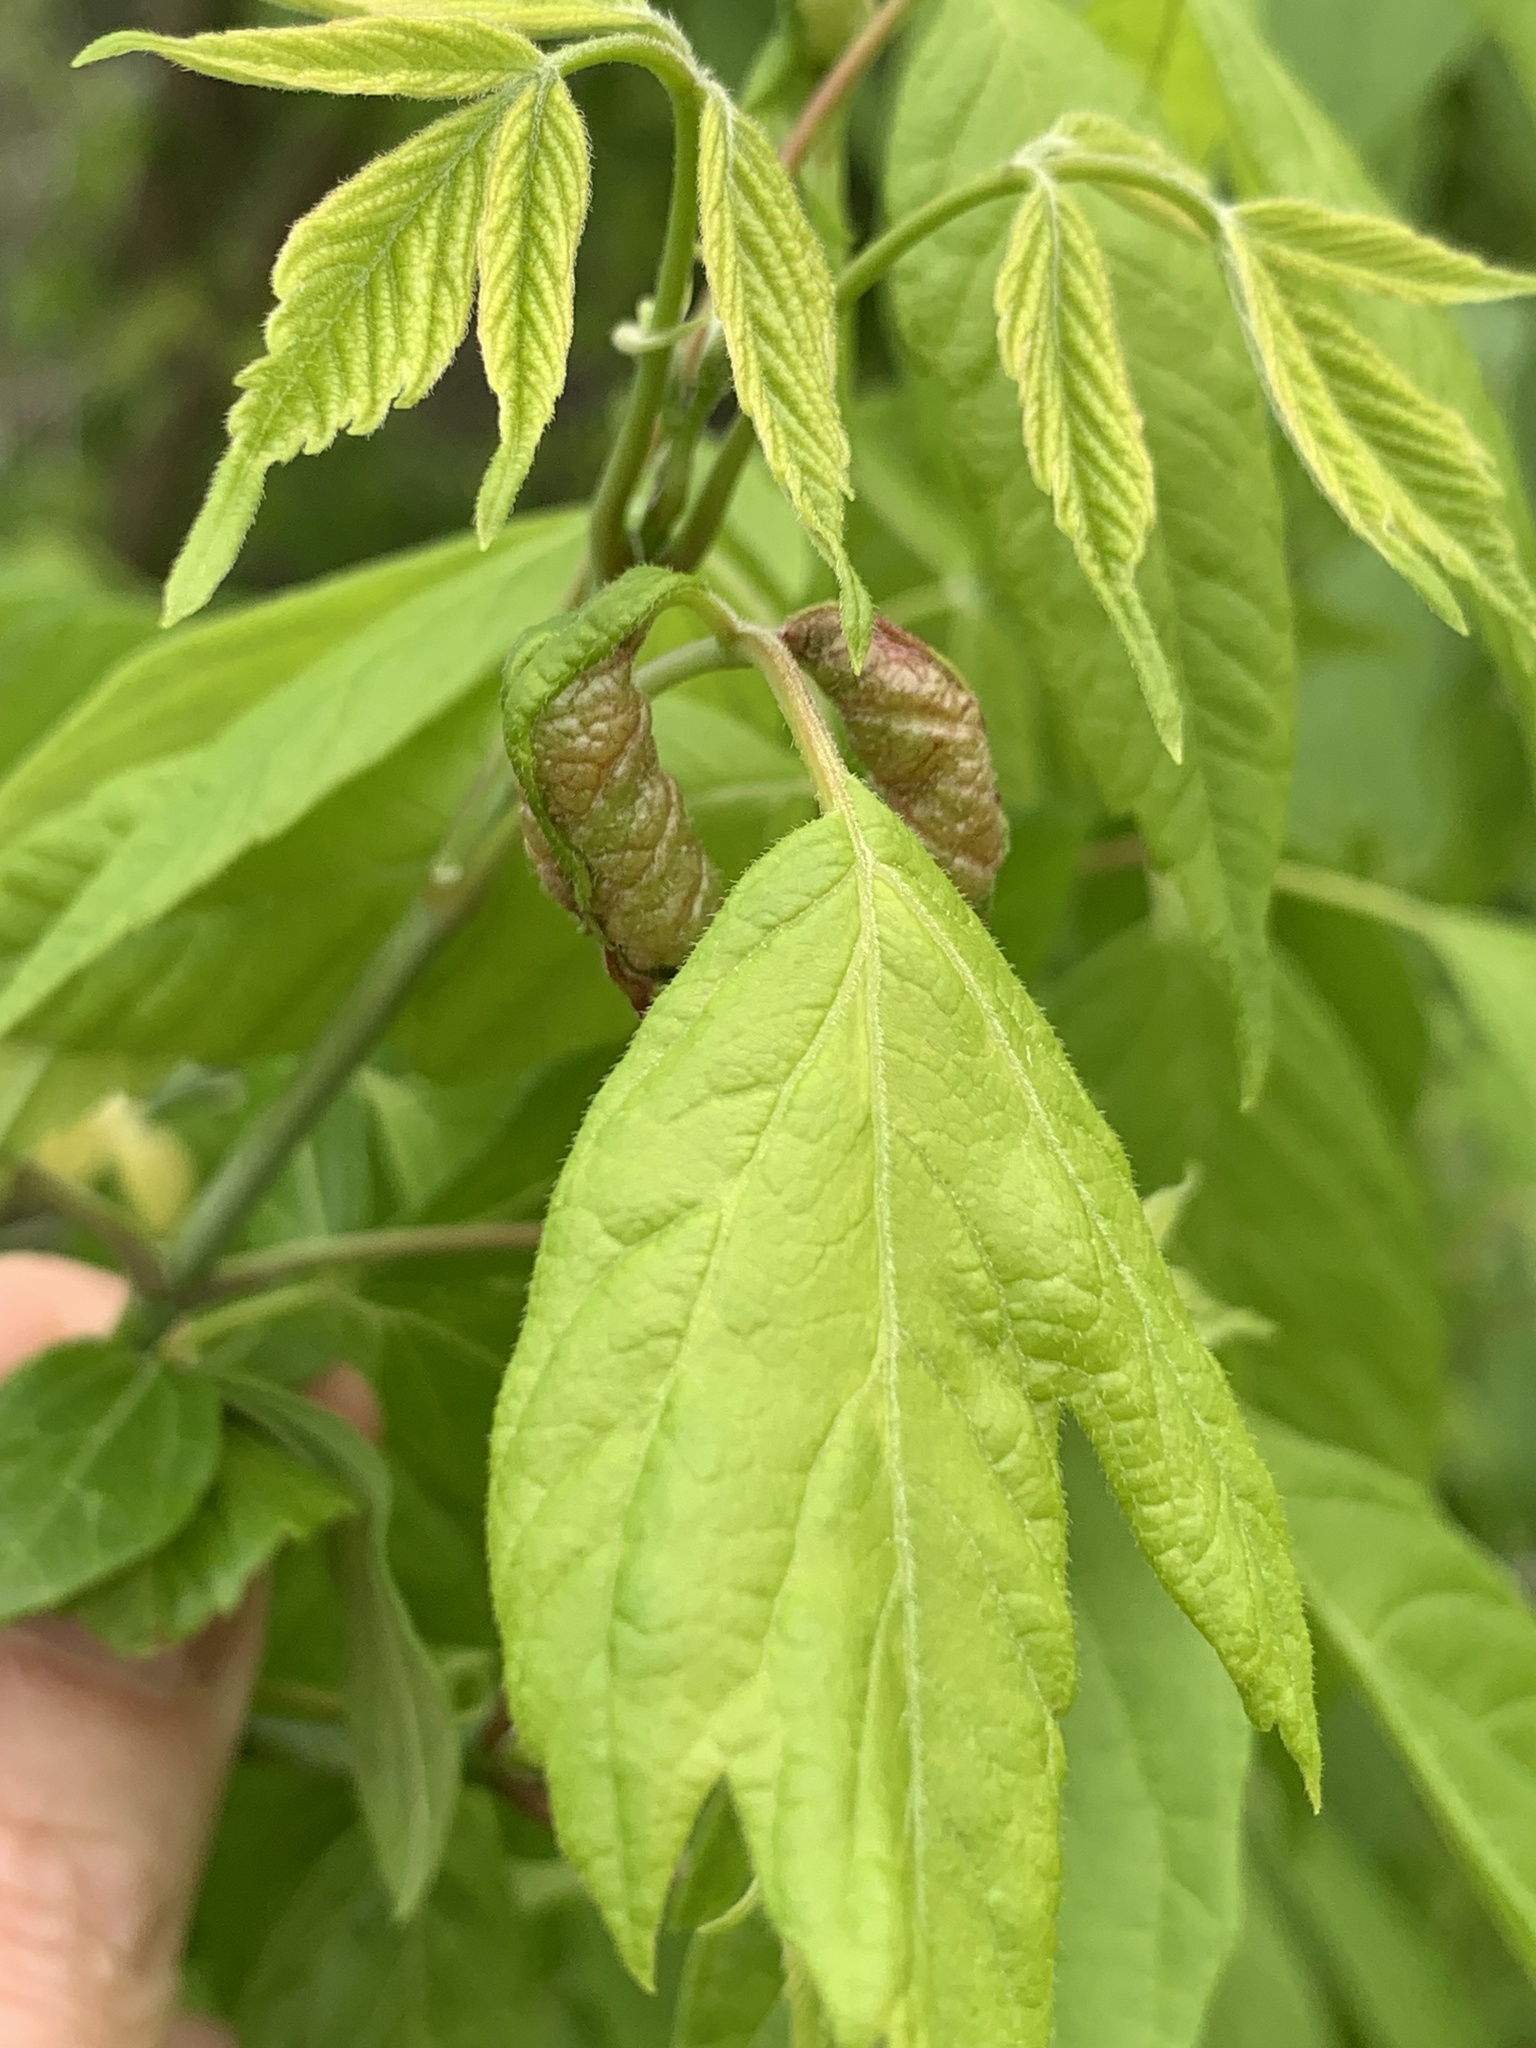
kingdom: Animalia
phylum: Arthropoda
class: Insecta
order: Diptera
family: Cecidomyiidae
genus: Contarinia
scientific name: Contarinia negundinis
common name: Boxelder budgall midge
